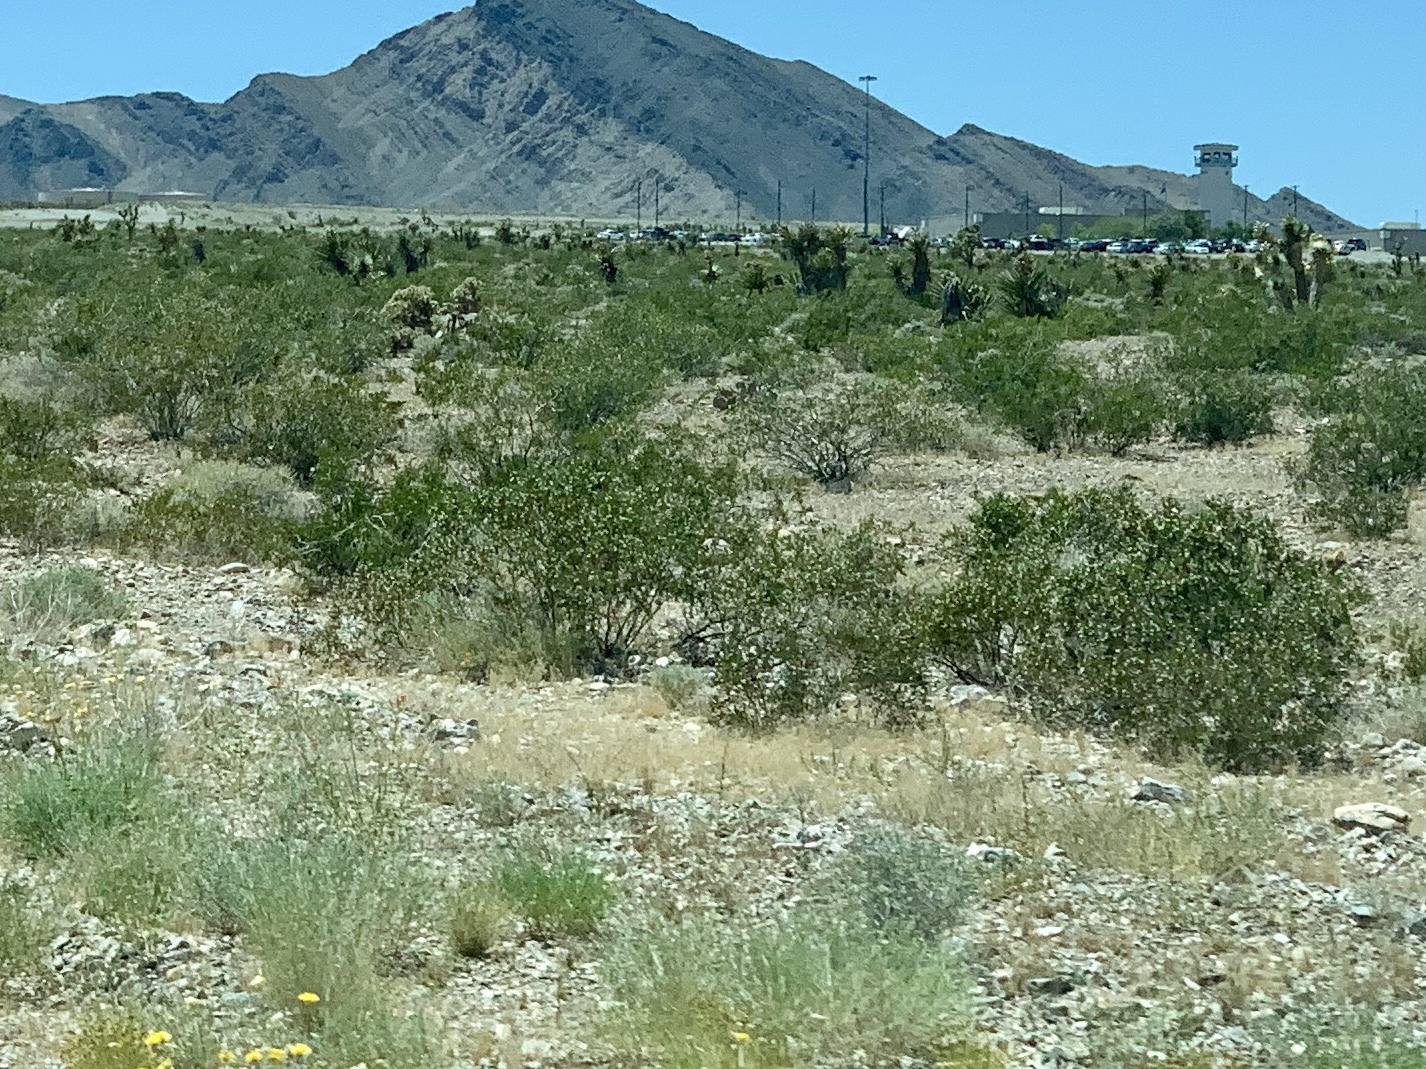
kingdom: Plantae
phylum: Tracheophyta
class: Magnoliopsida
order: Zygophyllales
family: Zygophyllaceae
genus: Larrea
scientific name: Larrea tridentata
